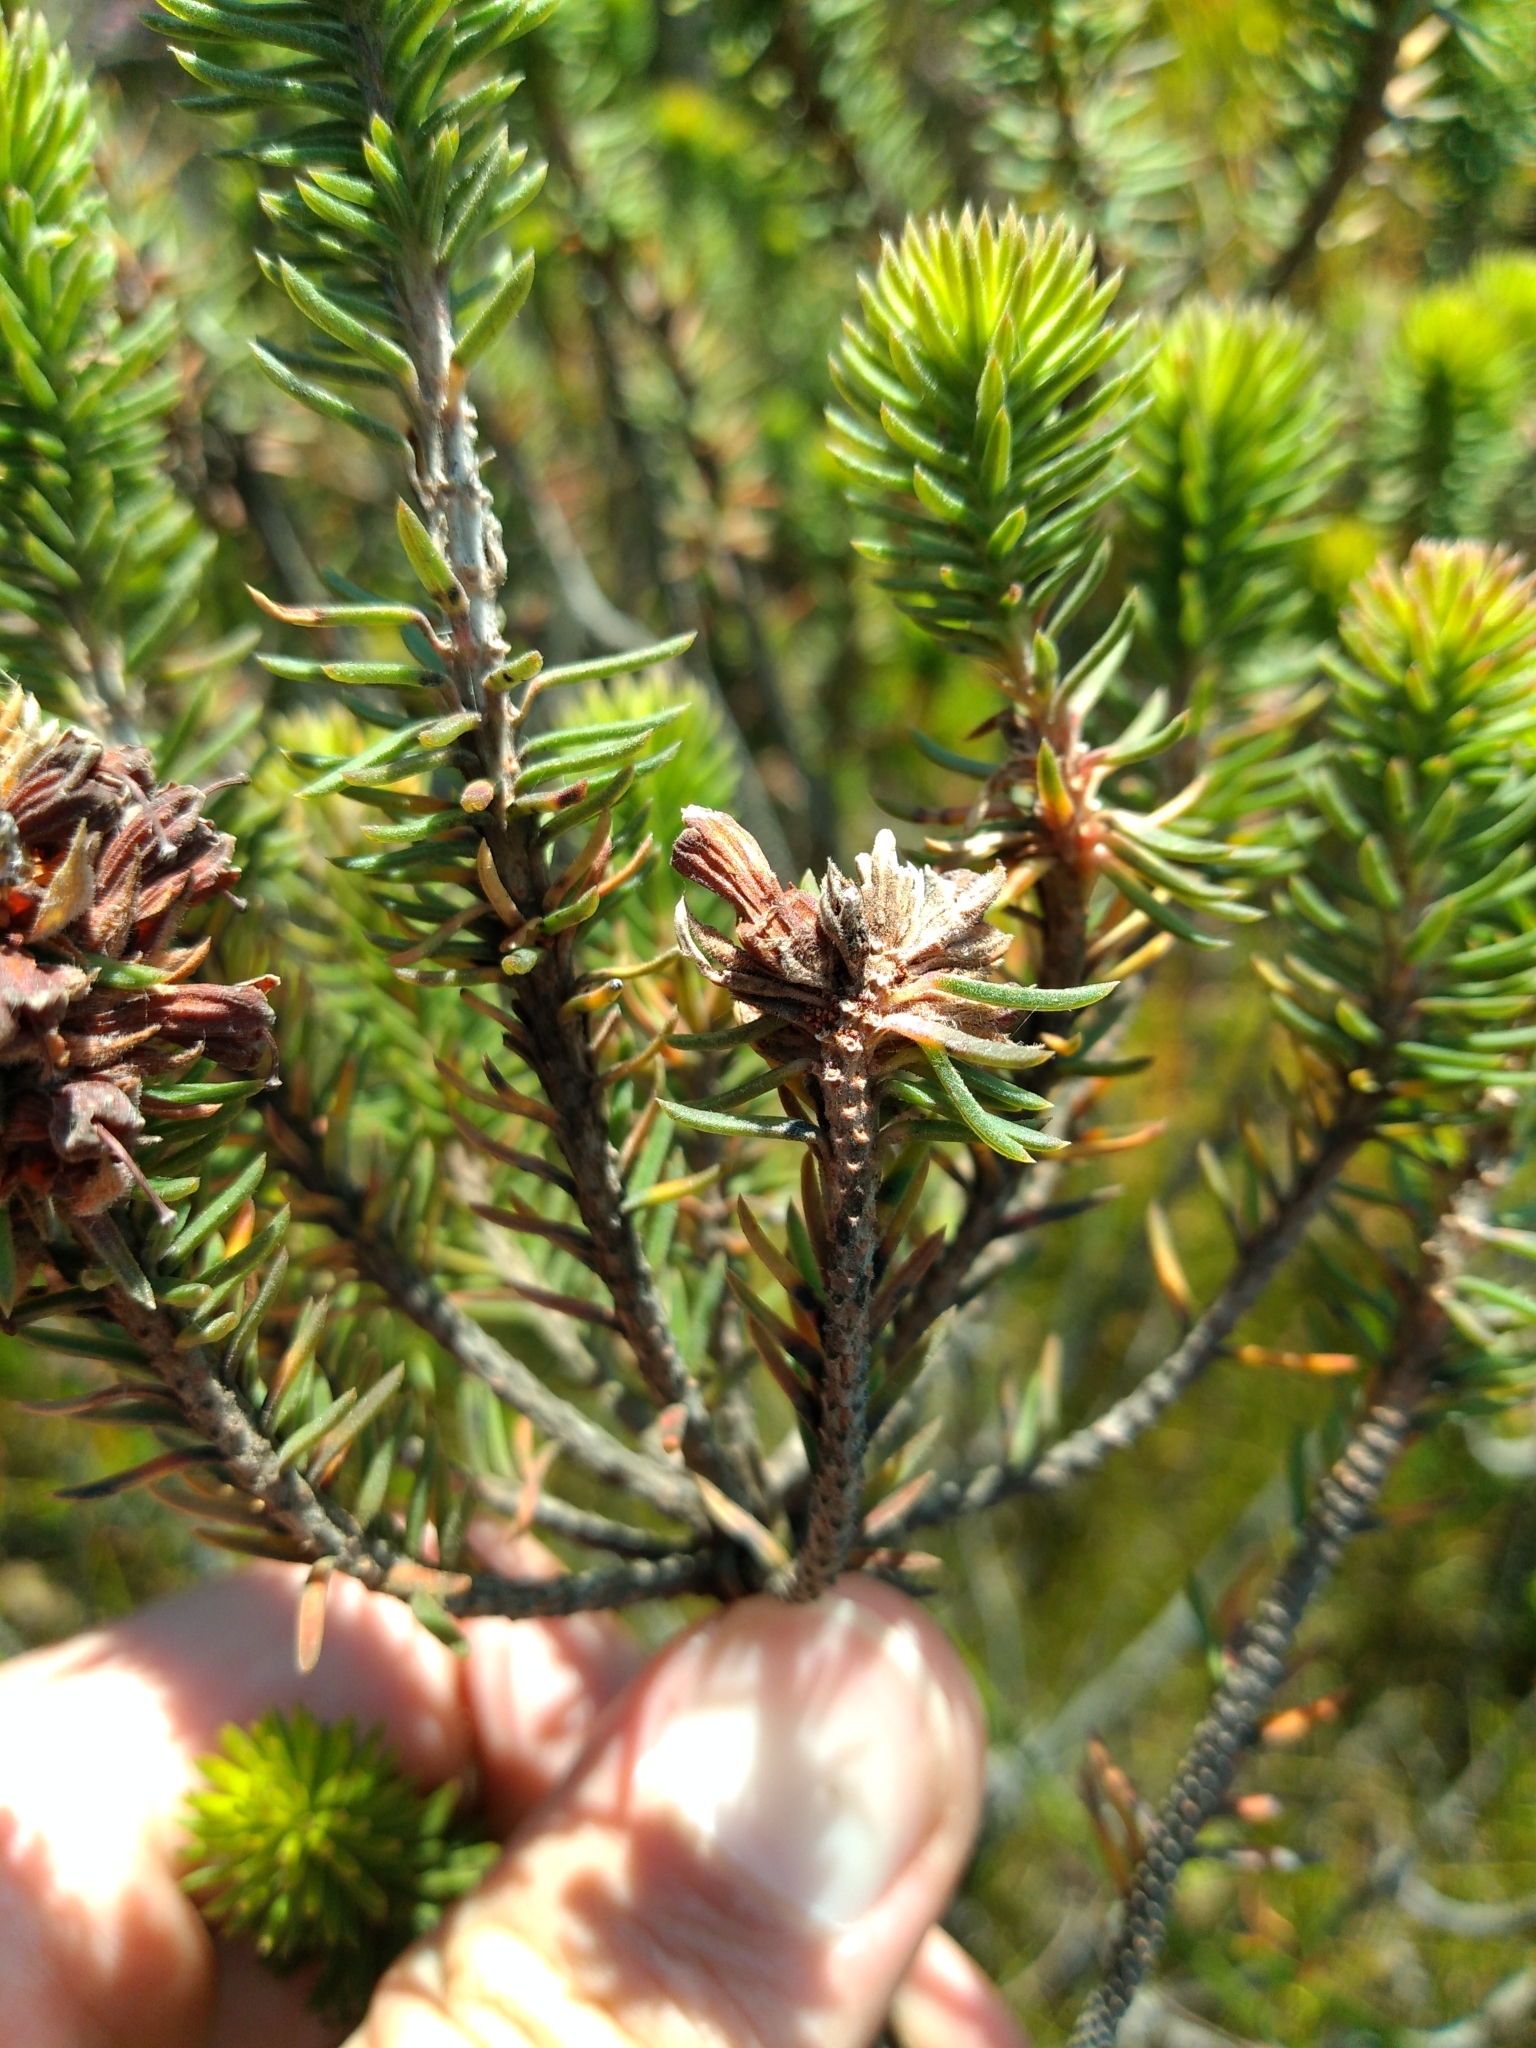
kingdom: Plantae
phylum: Tracheophyta
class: Magnoliopsida
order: Ericales
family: Ericaceae
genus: Erica
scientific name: Erica abietina
